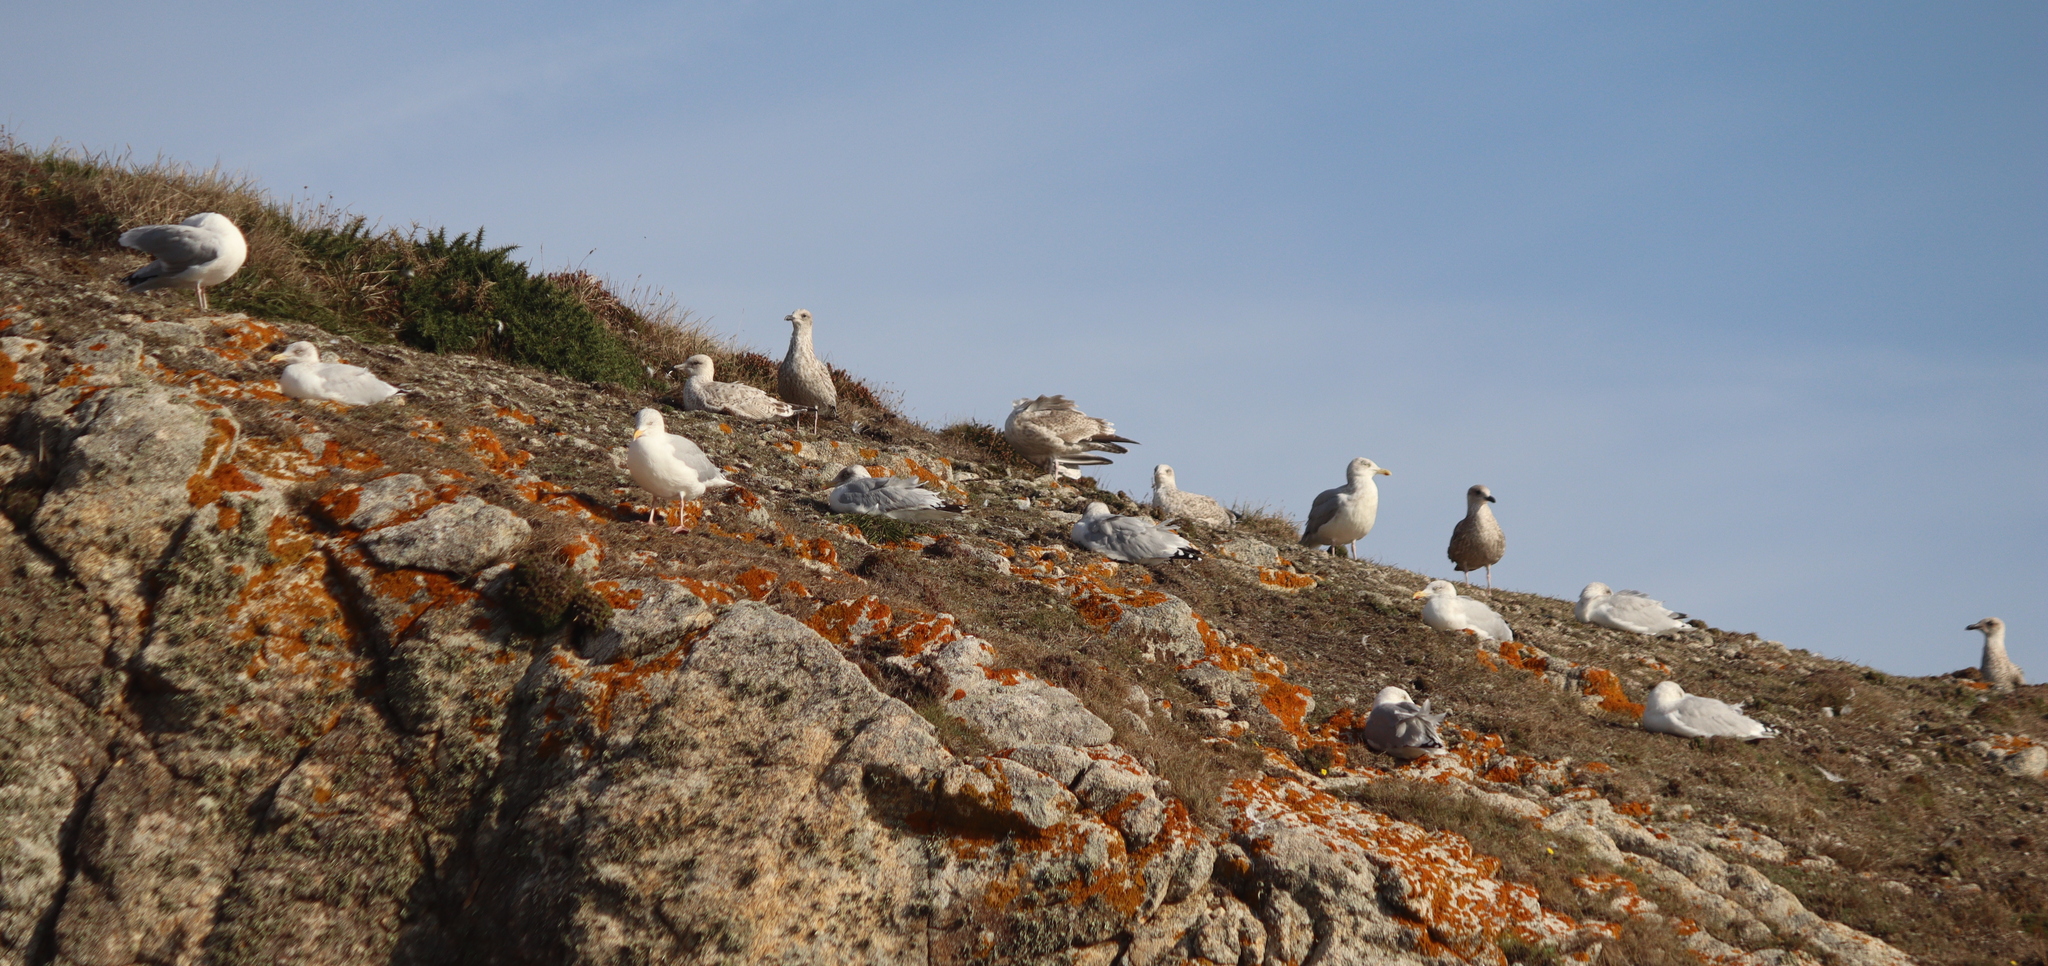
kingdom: Animalia
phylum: Chordata
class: Aves
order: Charadriiformes
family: Laridae
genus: Larus
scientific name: Larus argentatus
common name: Herring gull
